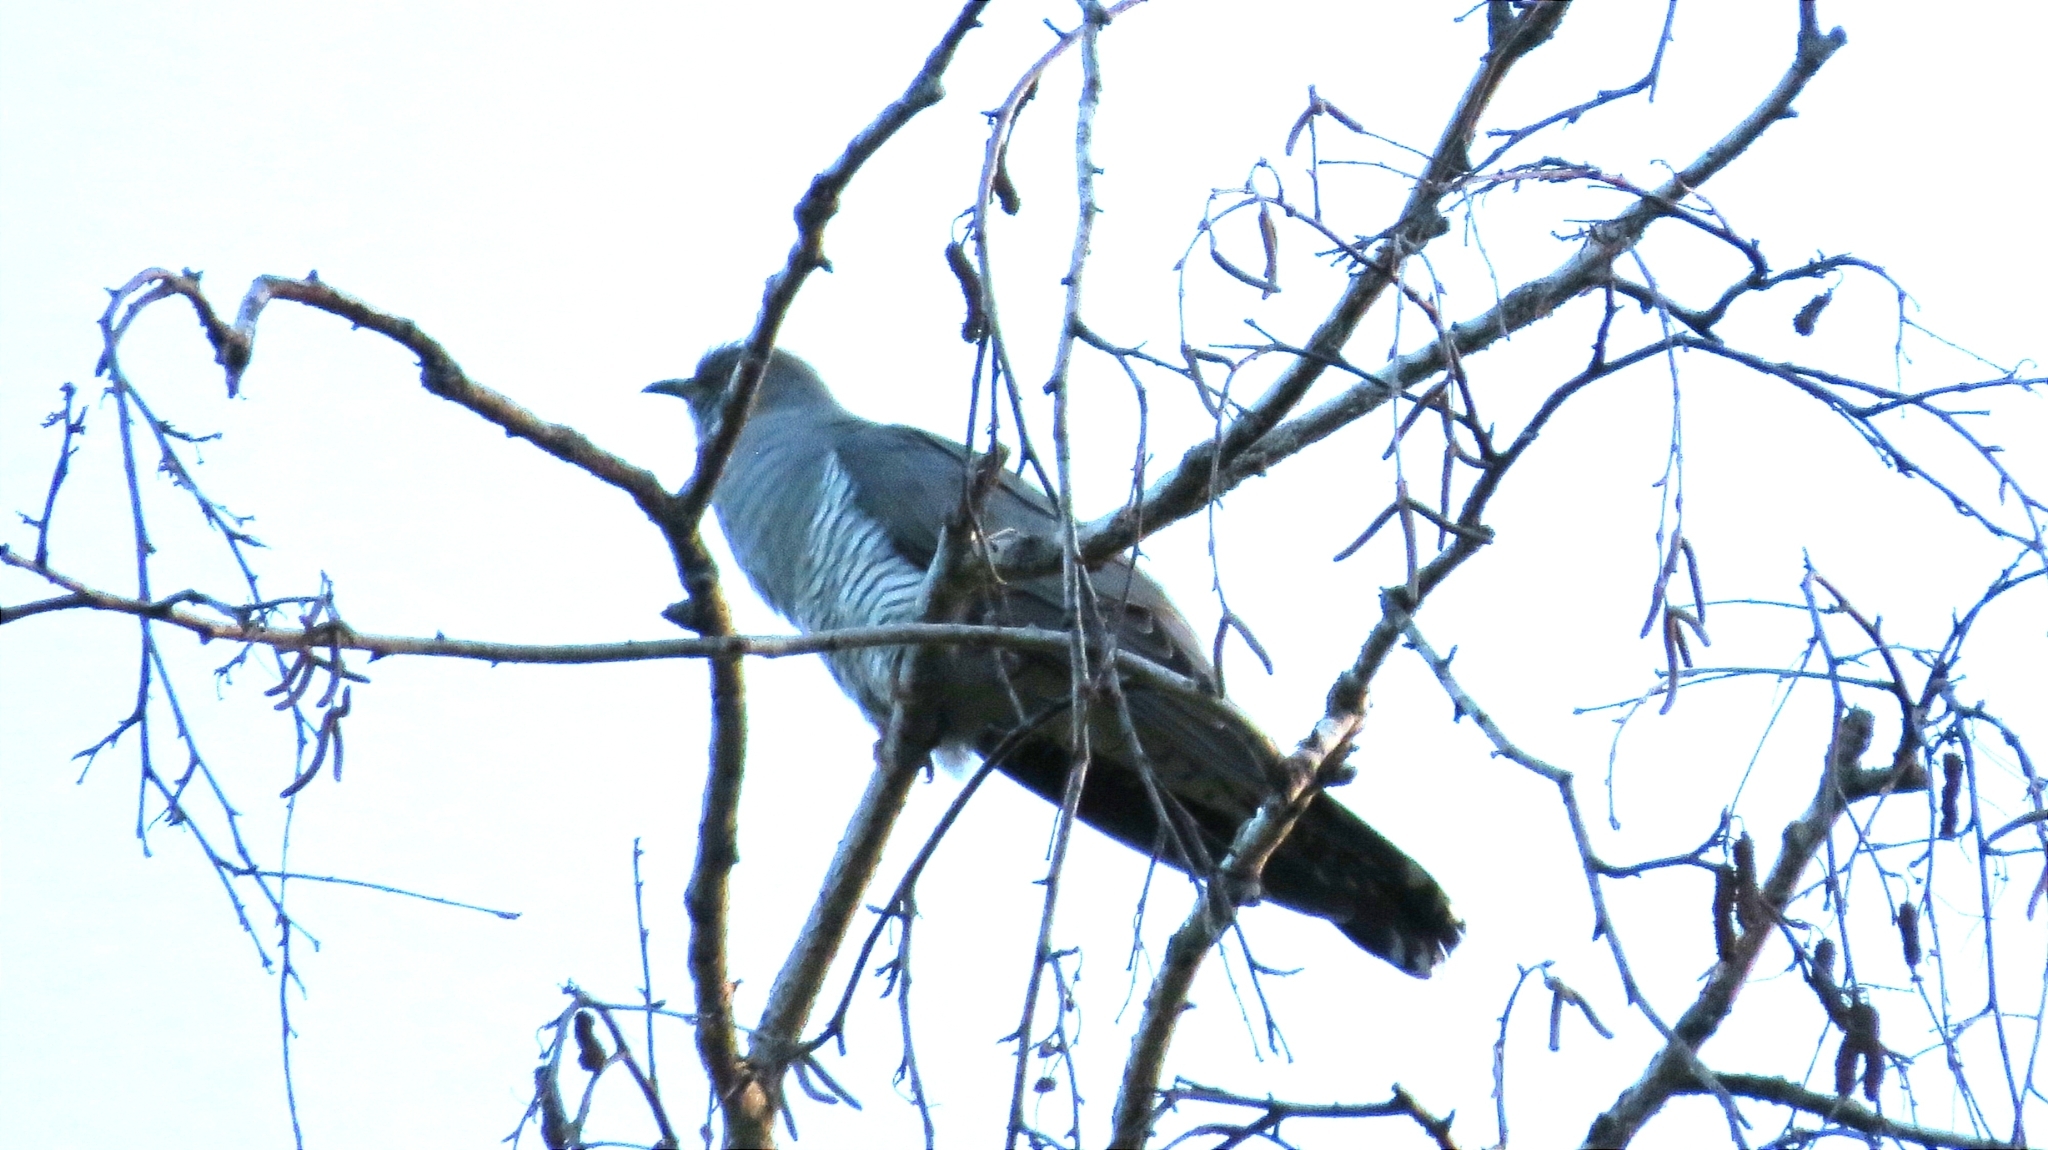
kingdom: Animalia
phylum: Chordata
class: Aves
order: Cuculiformes
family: Cuculidae
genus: Cuculus
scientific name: Cuculus canorus
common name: Common cuckoo
